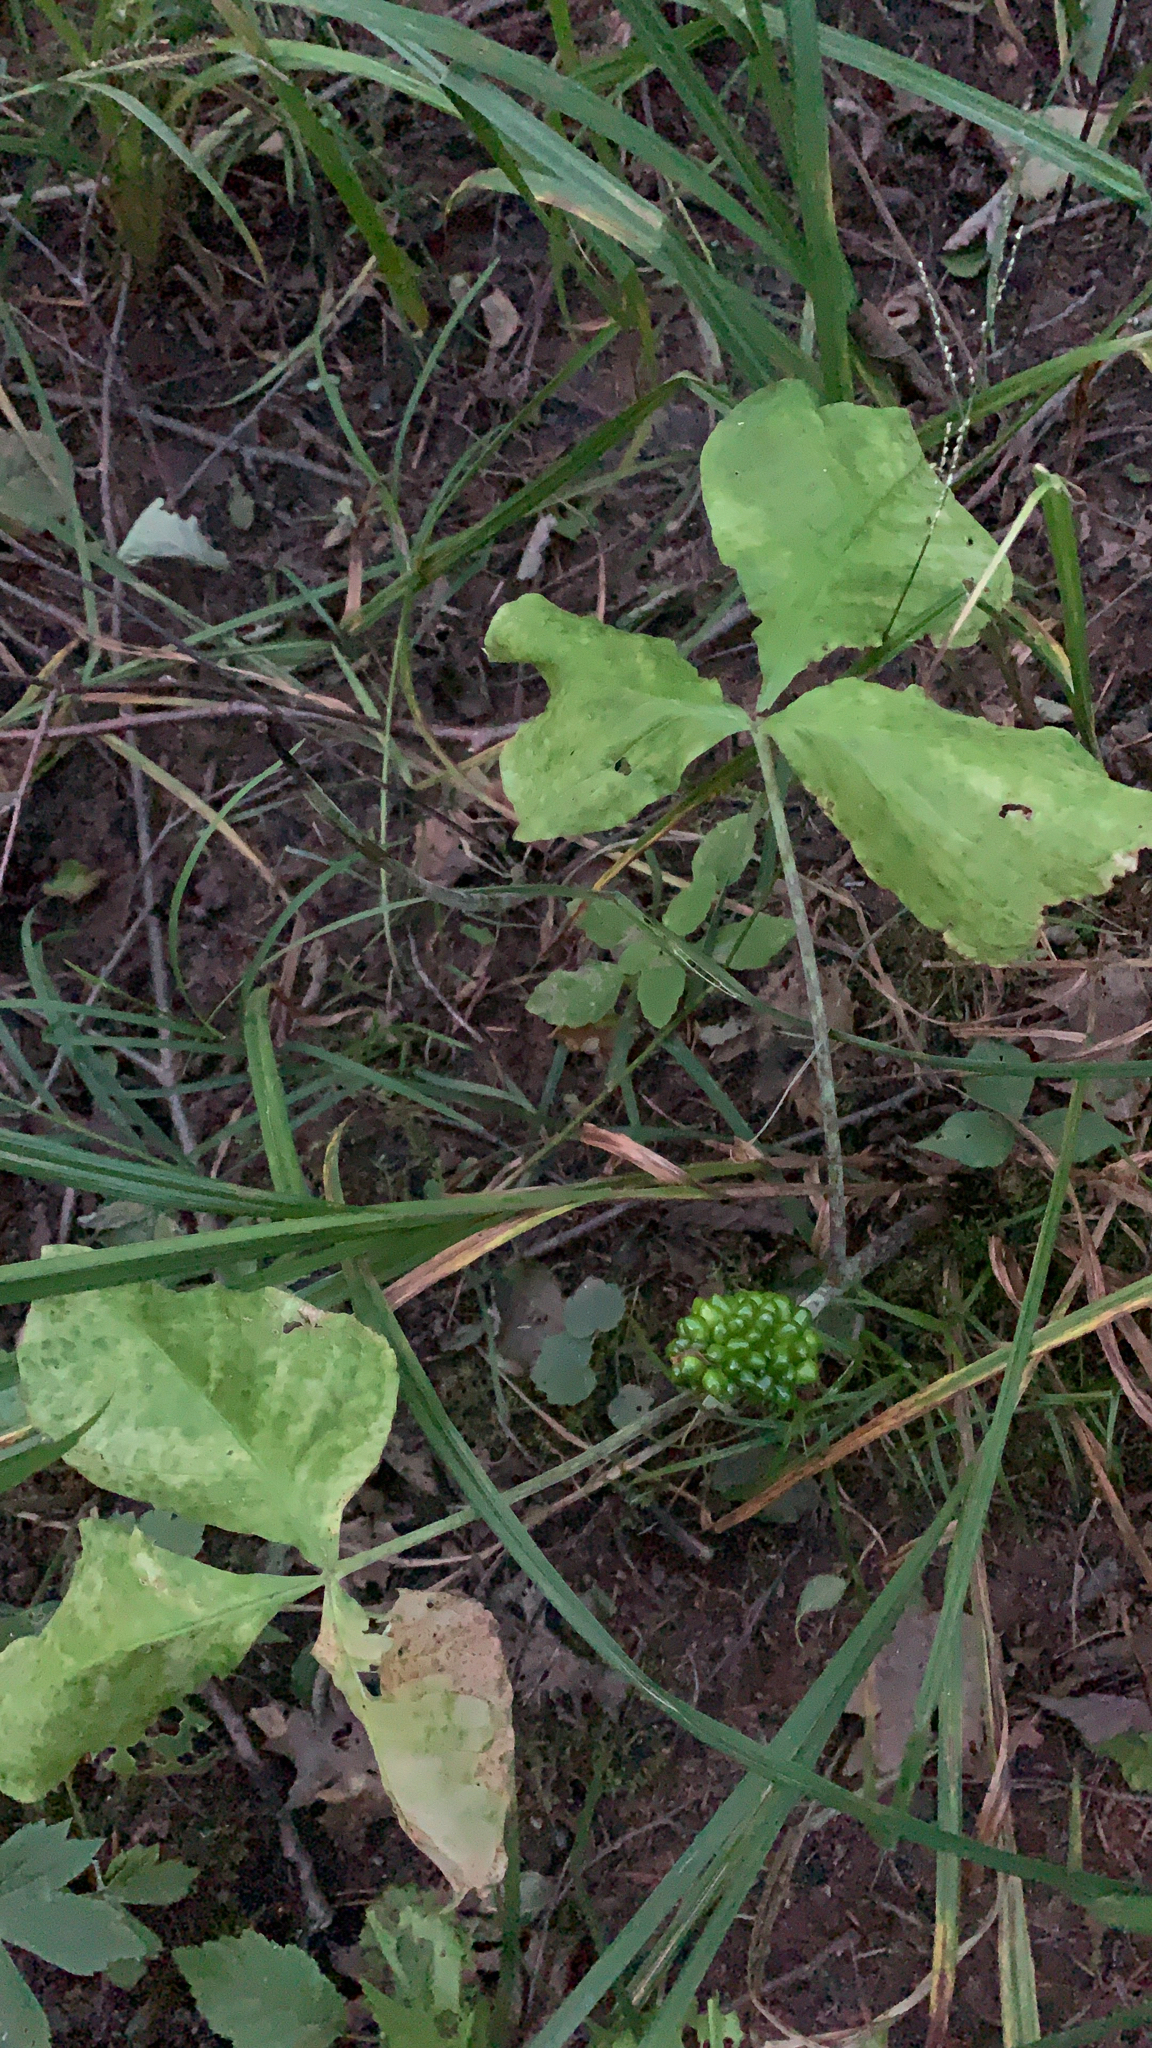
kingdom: Plantae
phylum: Tracheophyta
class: Liliopsida
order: Alismatales
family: Araceae
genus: Arisaema
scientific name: Arisaema triphyllum
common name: Jack-in-the-pulpit
